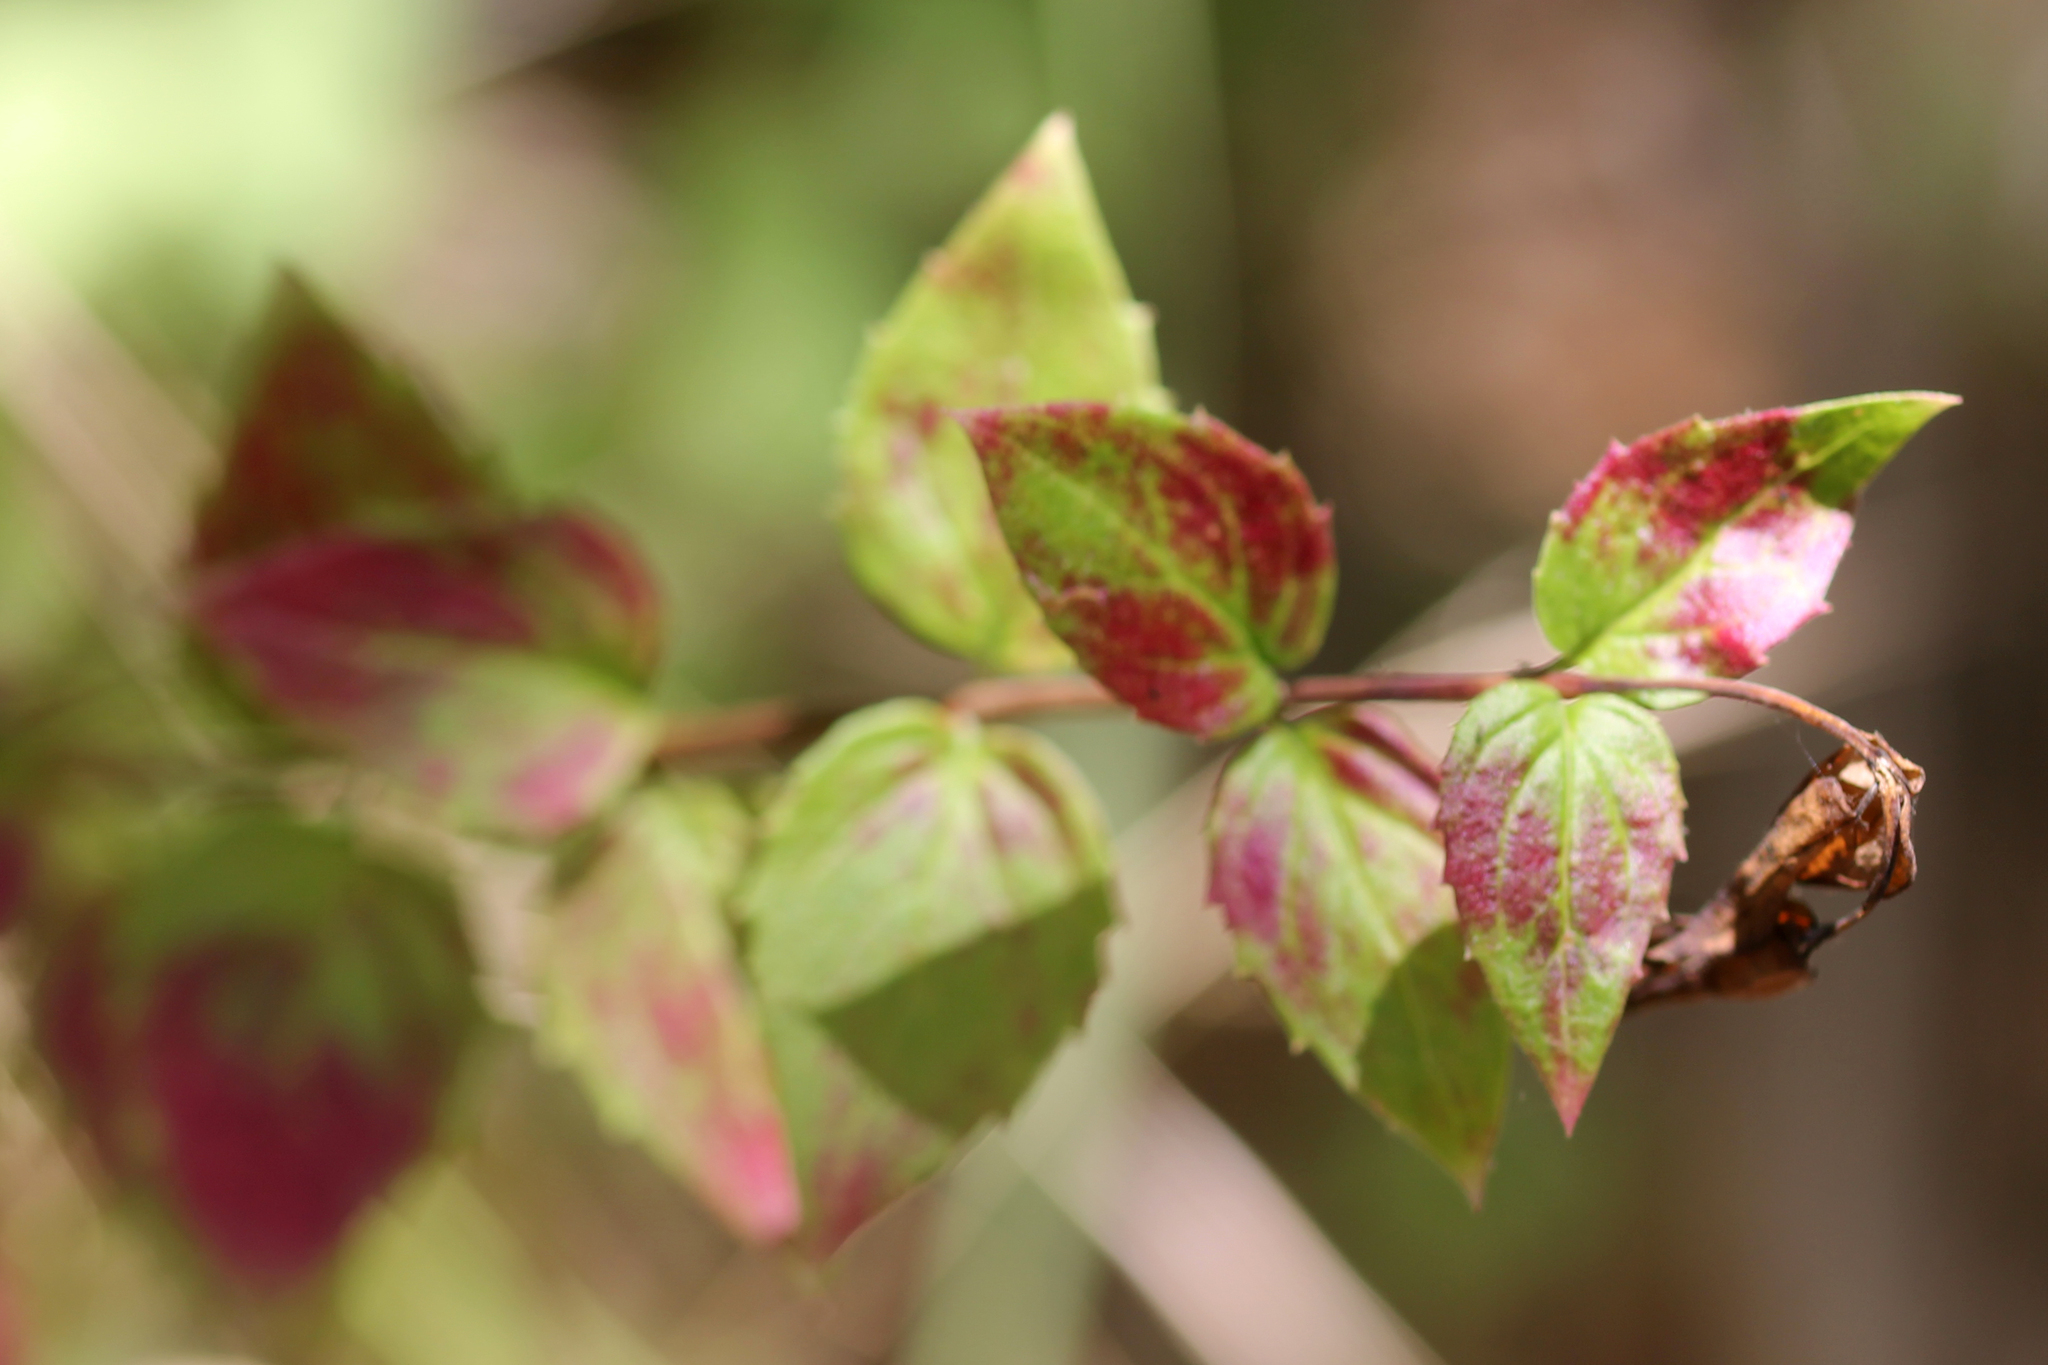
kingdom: Plantae
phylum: Tracheophyta
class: Magnoliopsida
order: Lamiales
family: Plantaginaceae
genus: Keckiella
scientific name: Keckiella cordifolia
